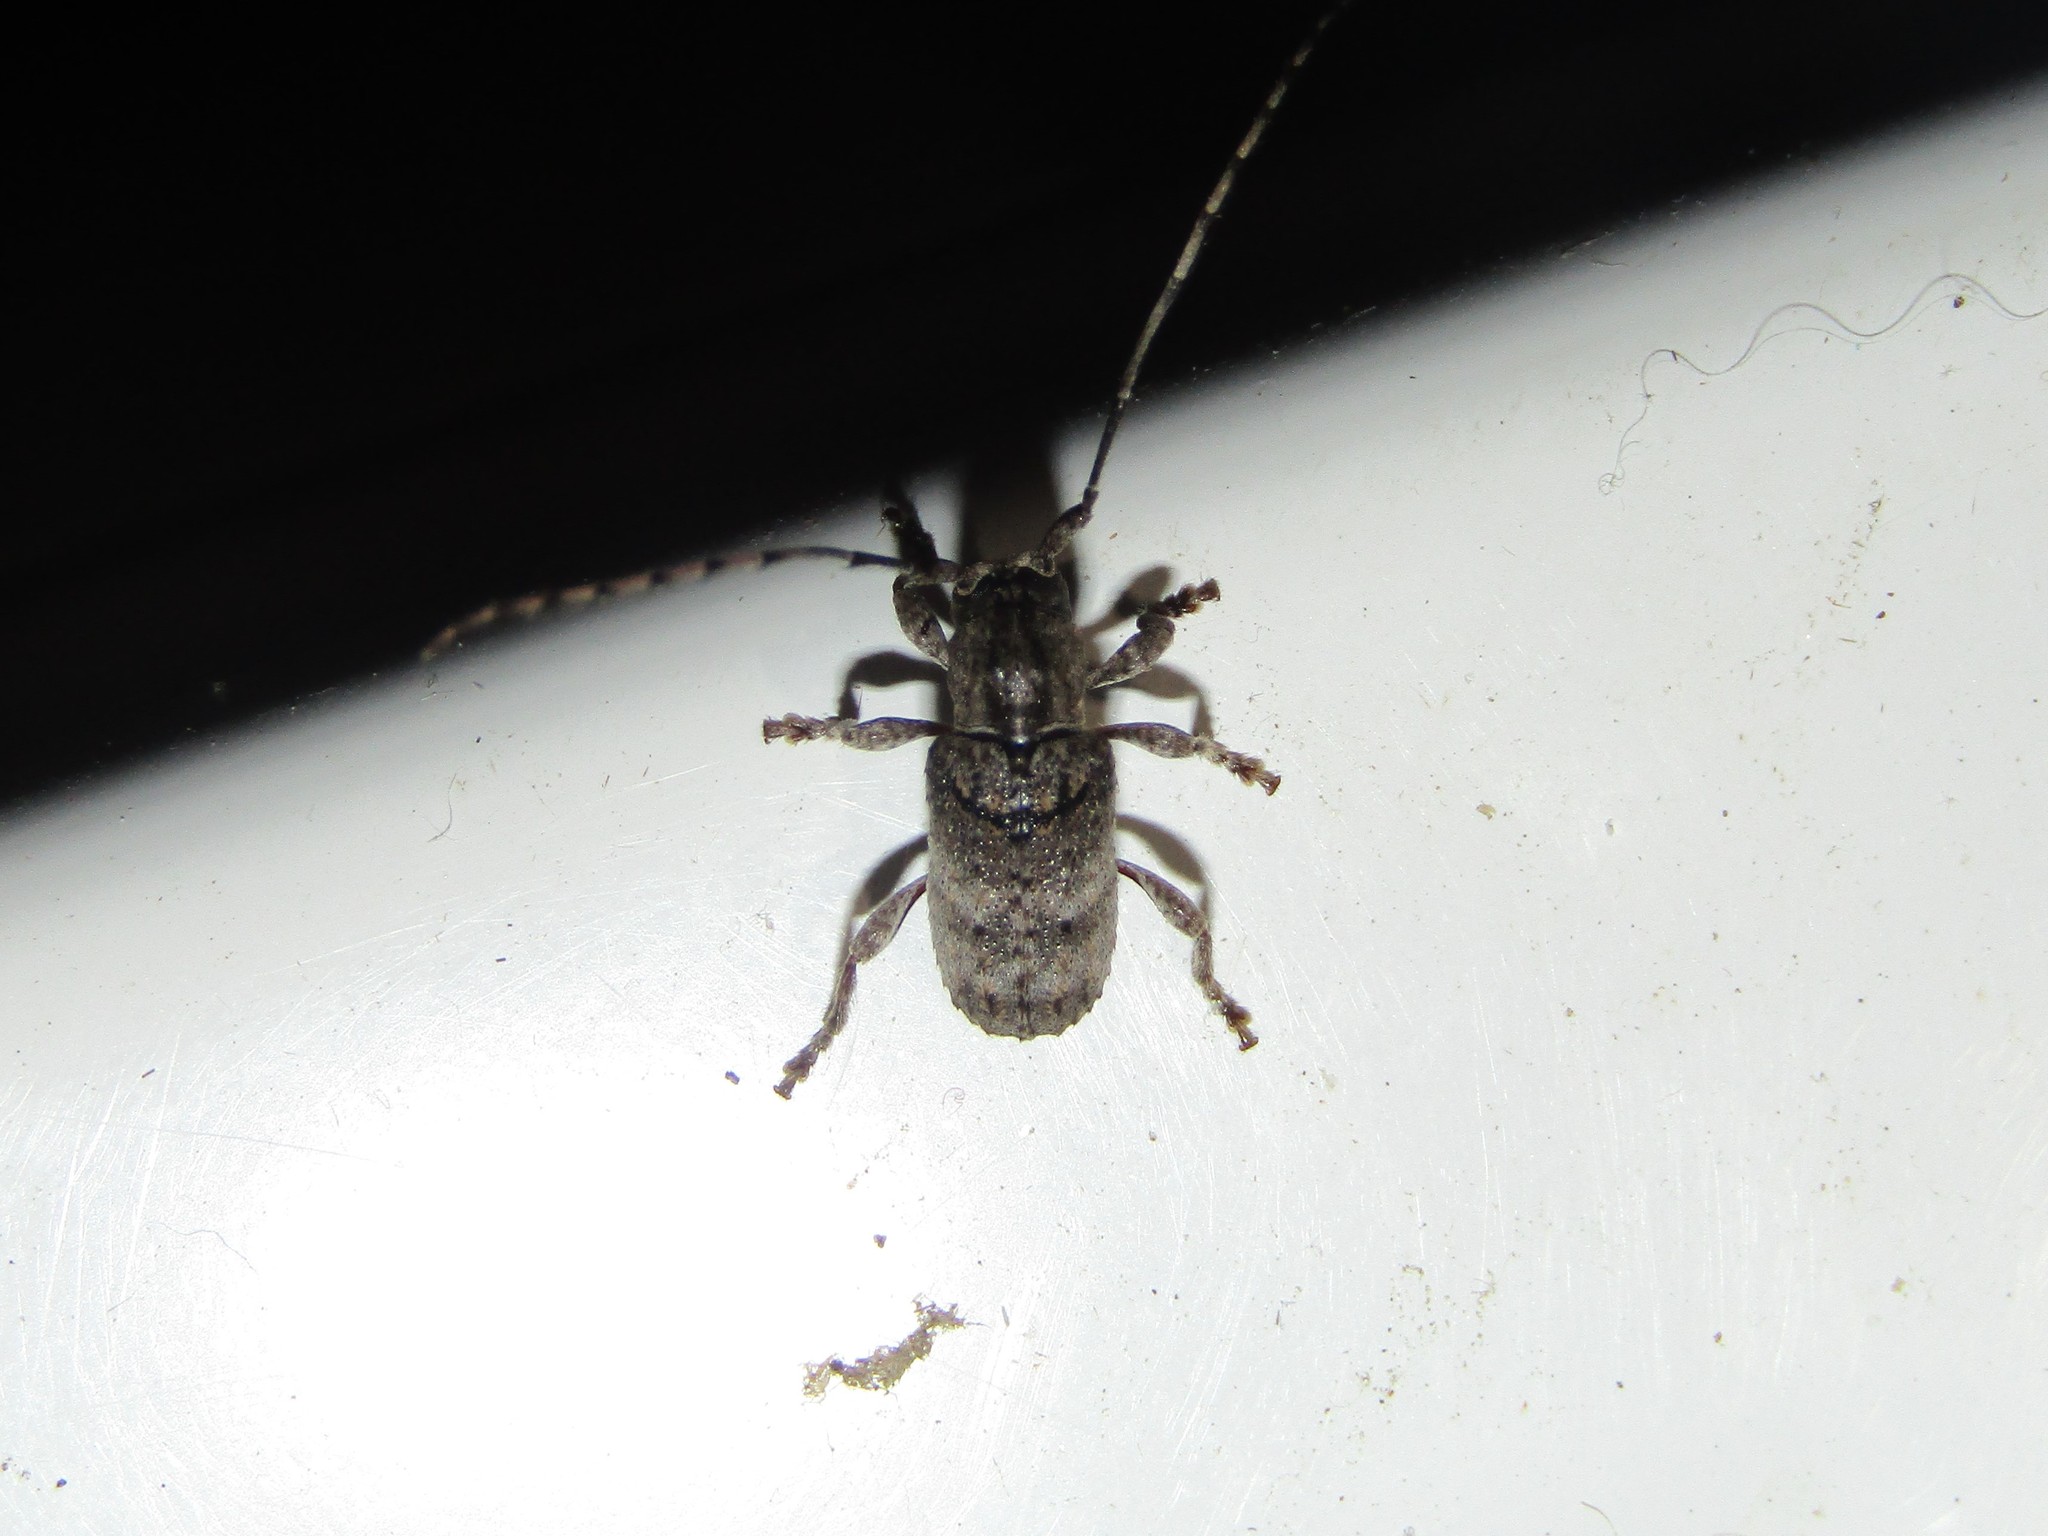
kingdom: Animalia
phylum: Arthropoda
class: Insecta
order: Coleoptera
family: Cerambycidae
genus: Ecyrus
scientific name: Ecyrus dasycerus
